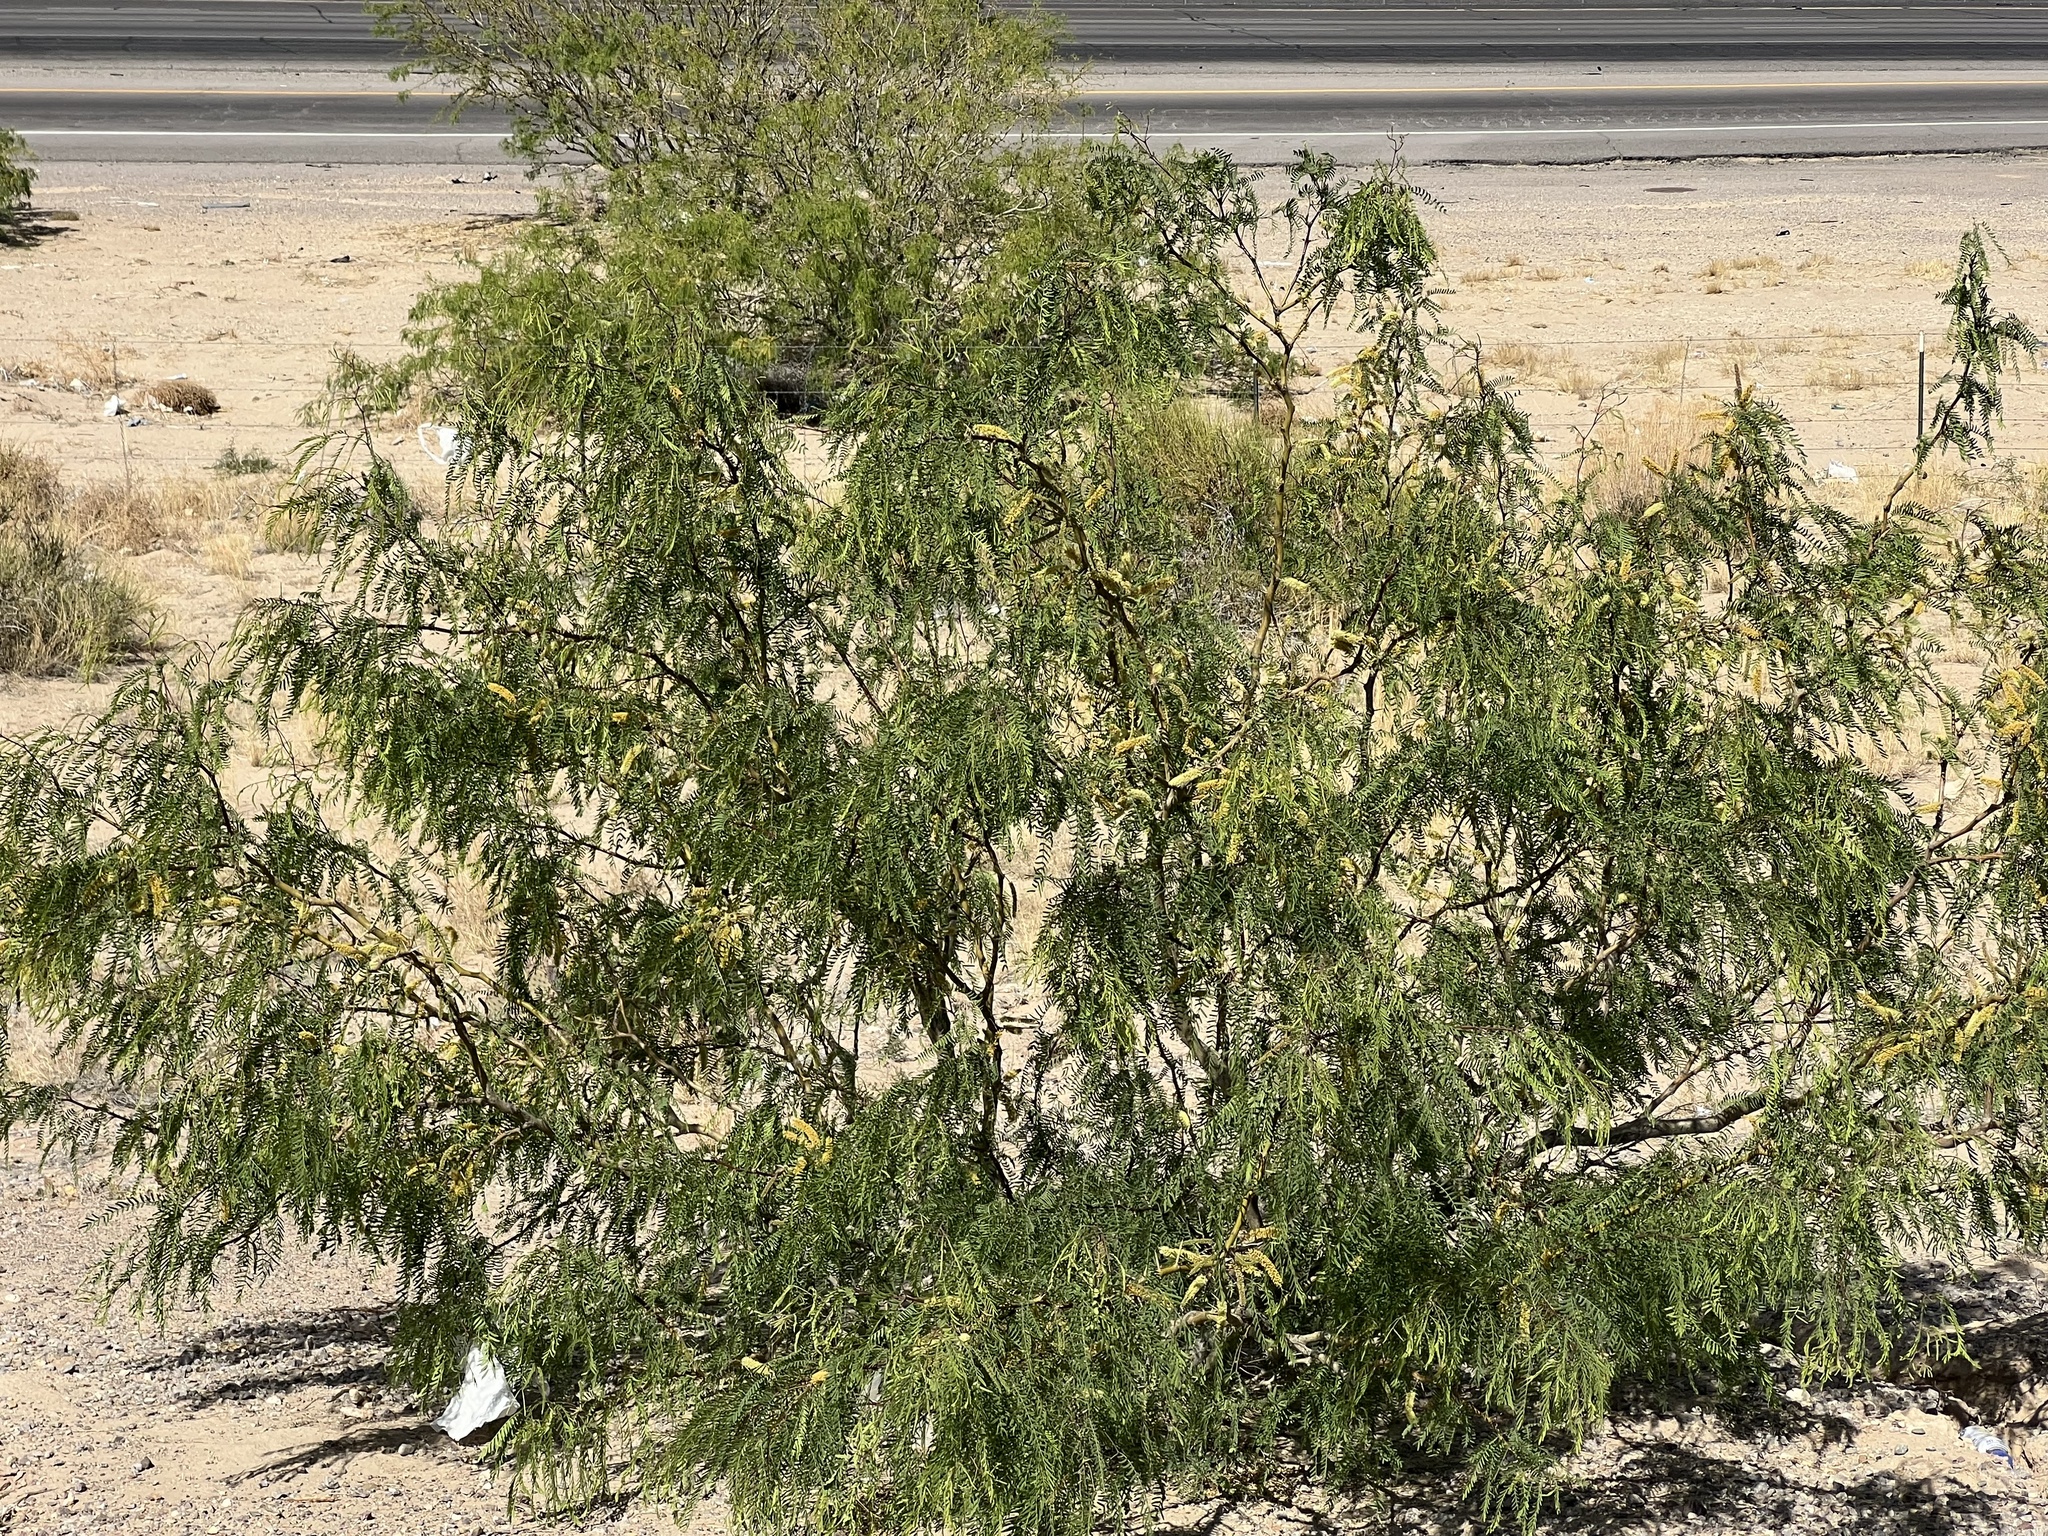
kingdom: Plantae
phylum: Tracheophyta
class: Magnoliopsida
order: Fabales
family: Fabaceae
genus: Prosopis
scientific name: Prosopis glandulosa
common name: Honey mesquite
